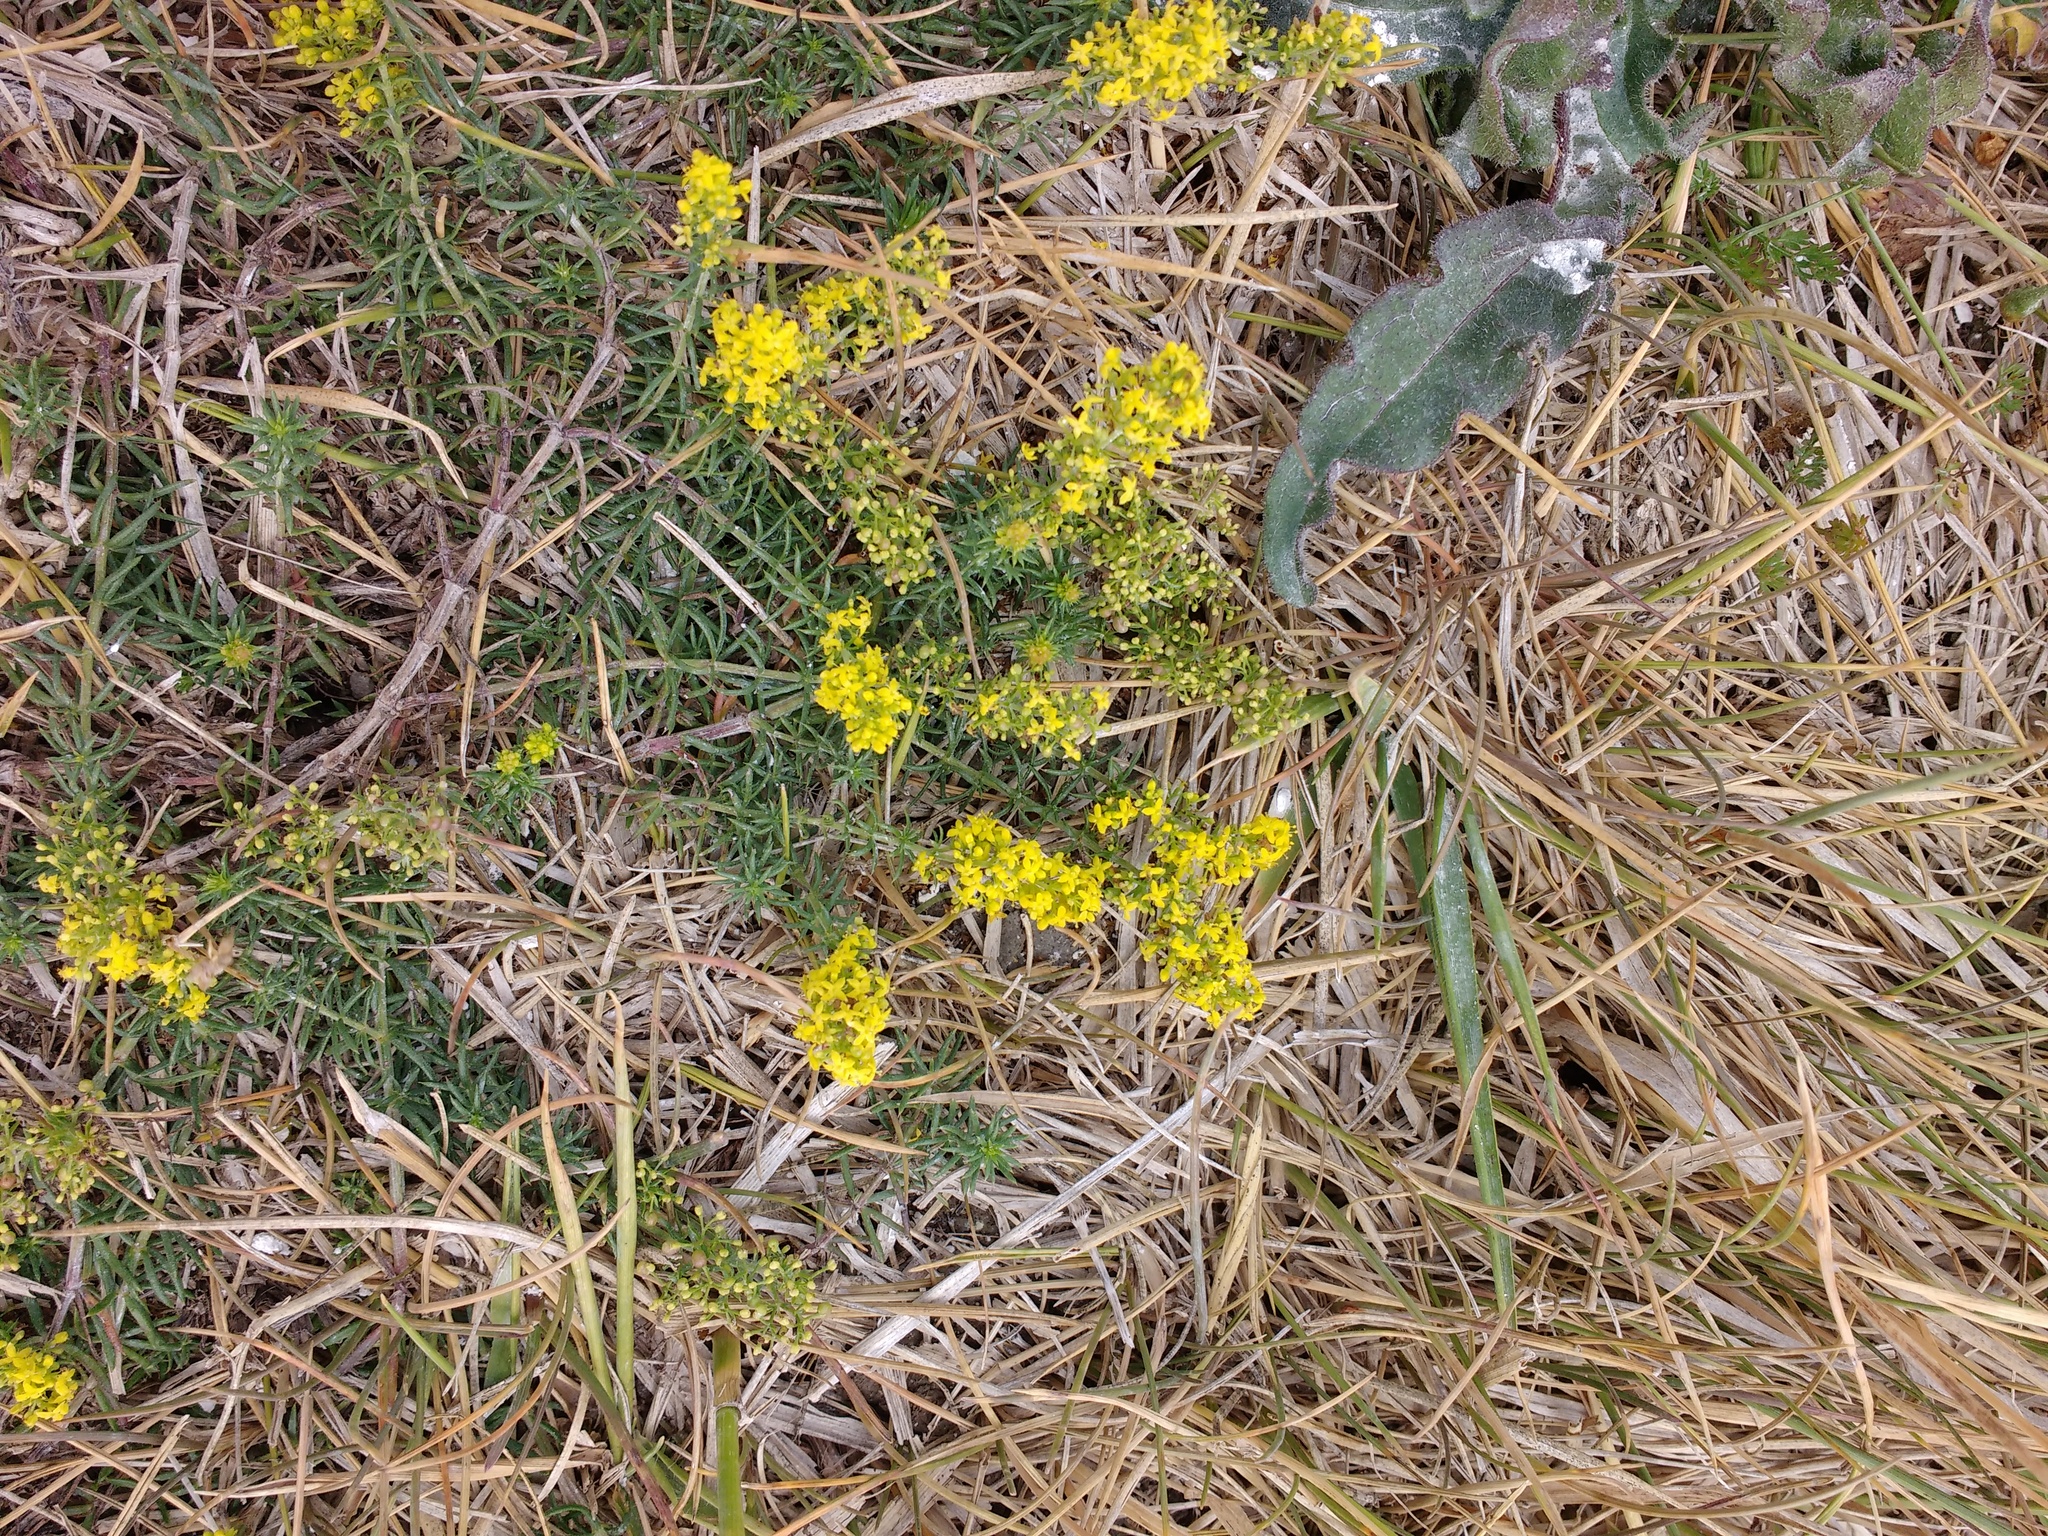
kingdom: Plantae
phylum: Tracheophyta
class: Magnoliopsida
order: Gentianales
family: Rubiaceae
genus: Galium
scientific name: Galium verum
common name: Lady's bedstraw
